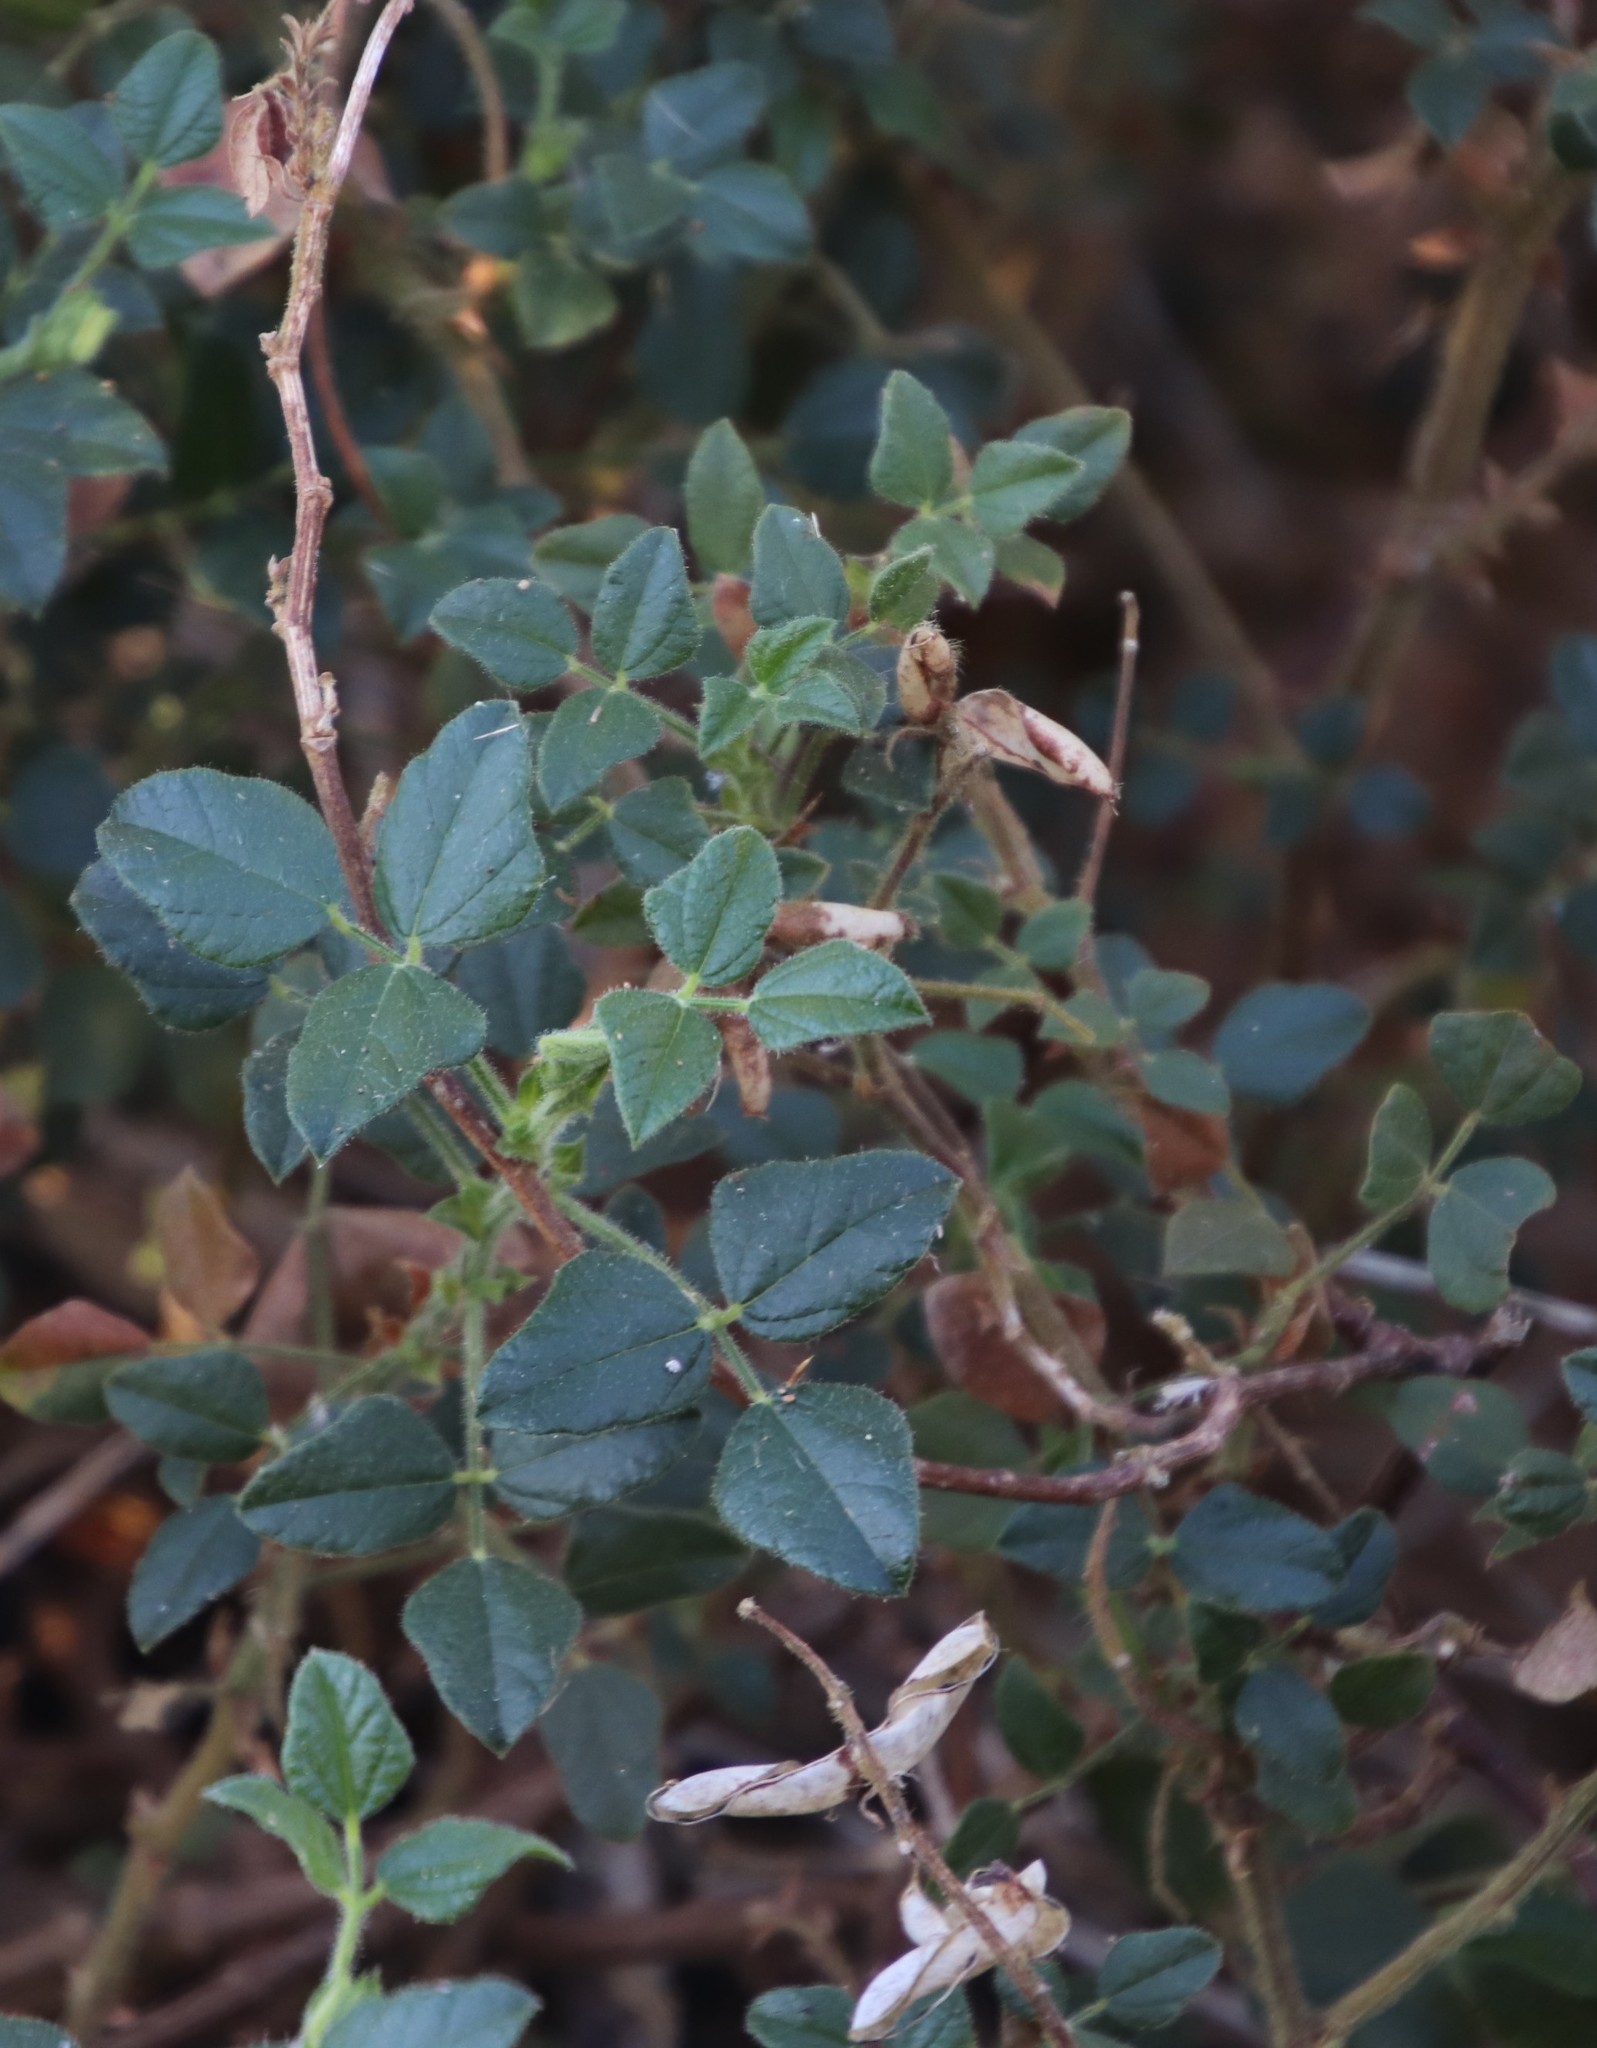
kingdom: Plantae
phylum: Tracheophyta
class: Magnoliopsida
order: Fabales
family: Fabaceae
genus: Bolusafra
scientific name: Bolusafra bituminosa
